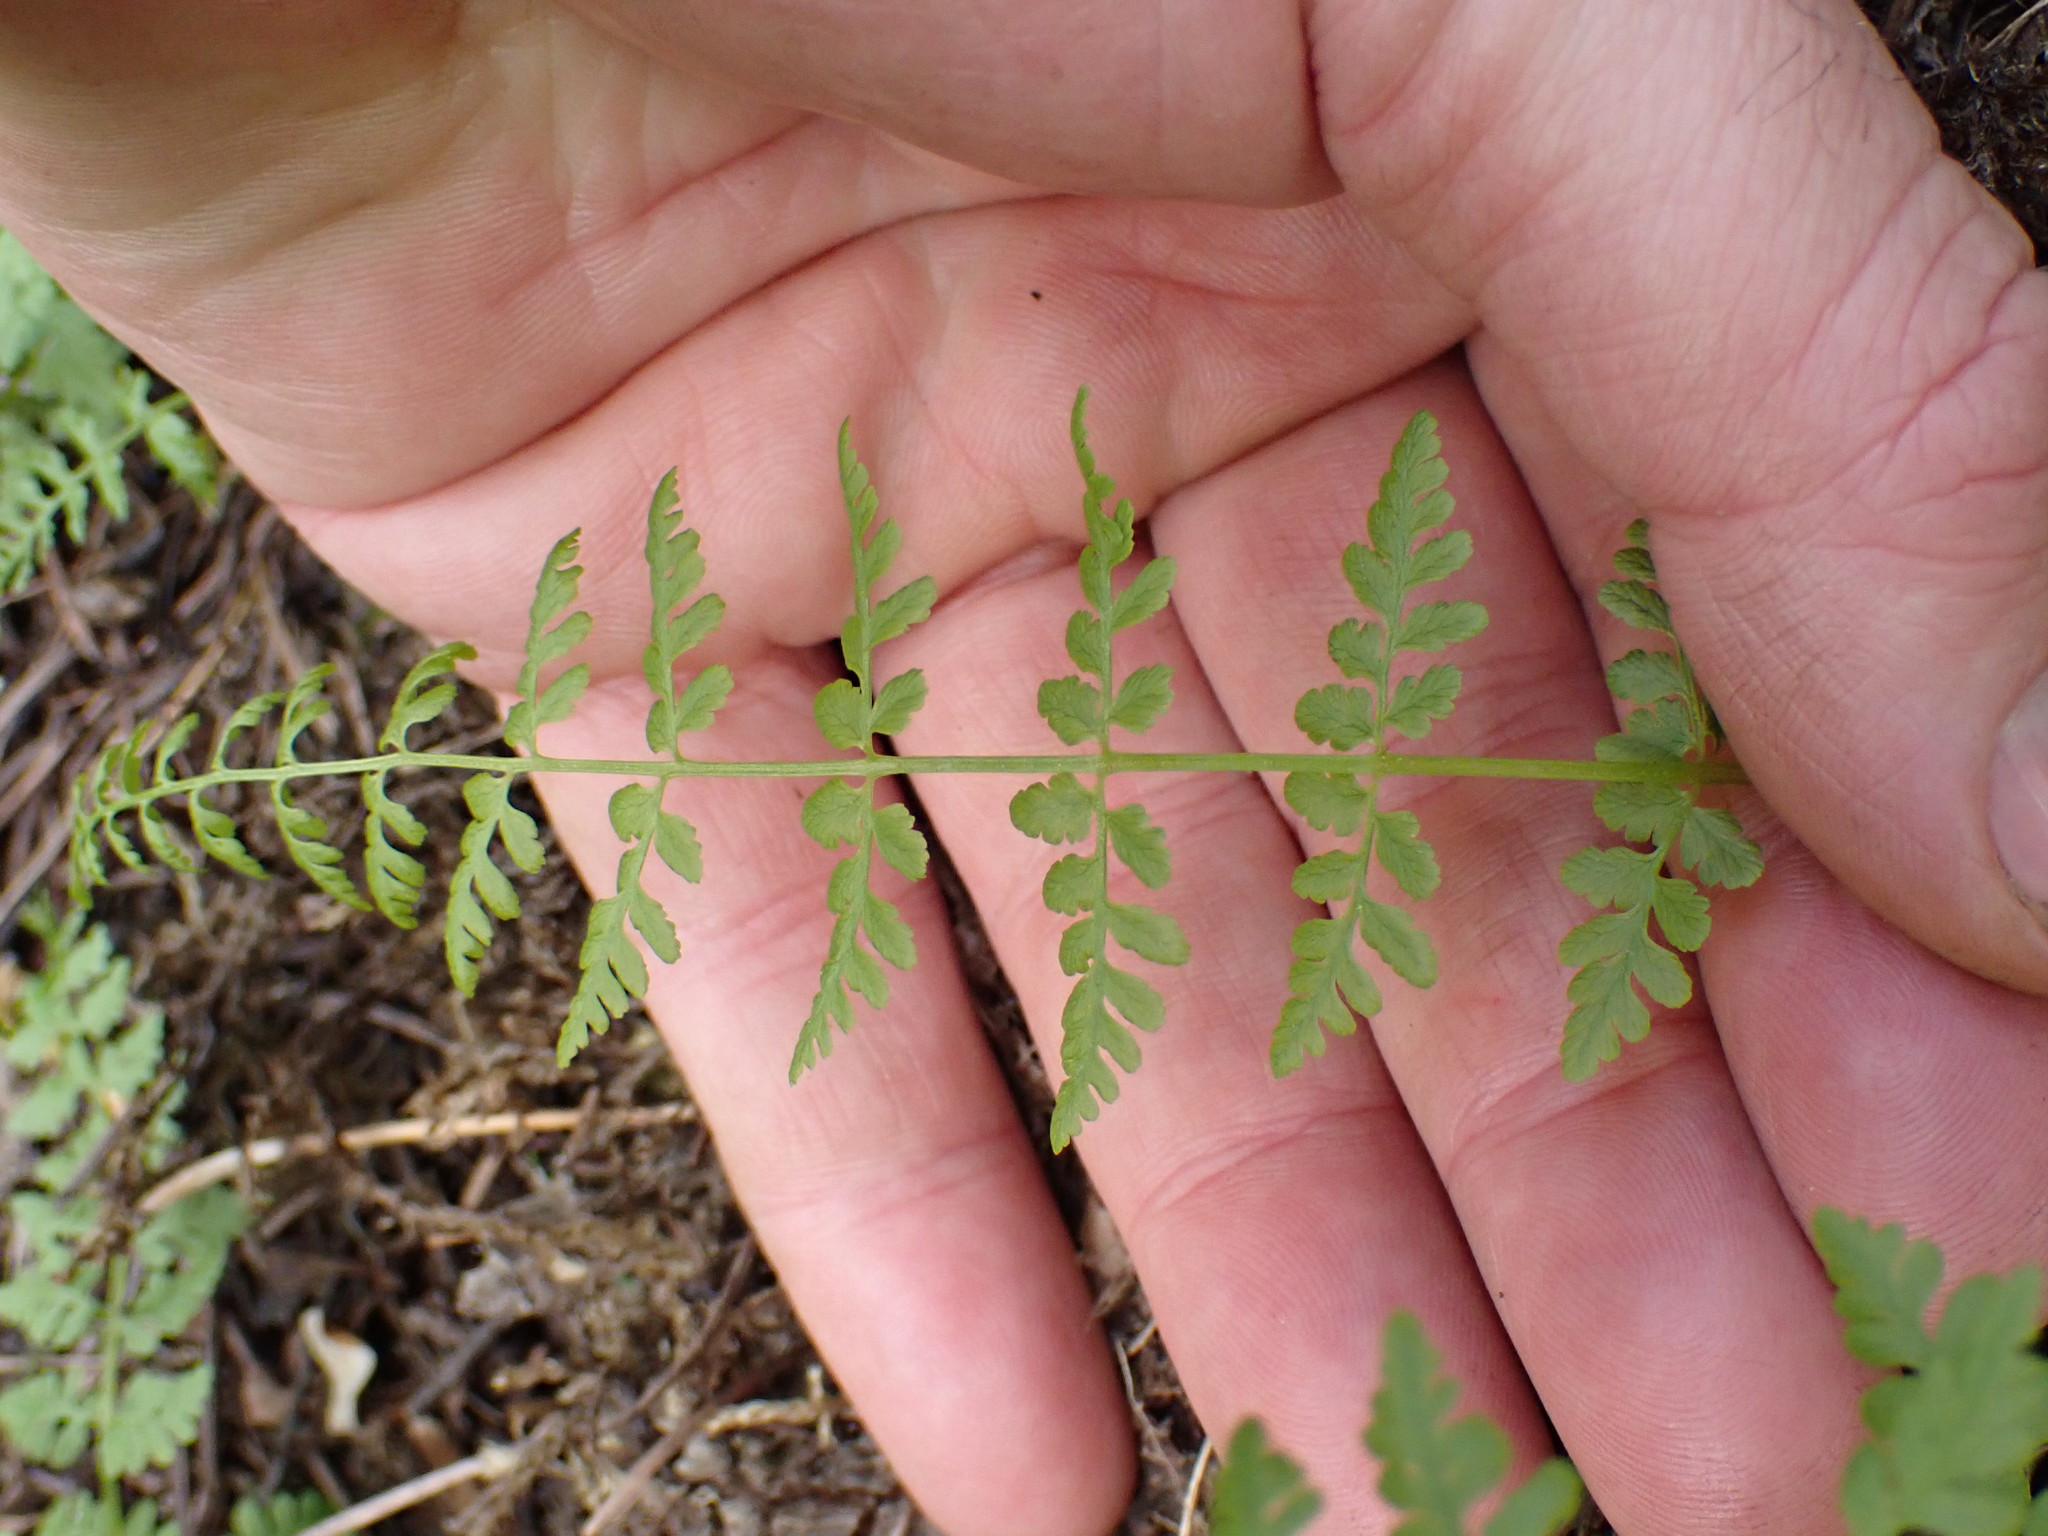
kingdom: Plantae
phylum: Tracheophyta
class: Polypodiopsida
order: Polypodiales
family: Cystopteridaceae
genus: Cystopteris
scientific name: Cystopteris fragilis
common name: Brittle bladder fern
